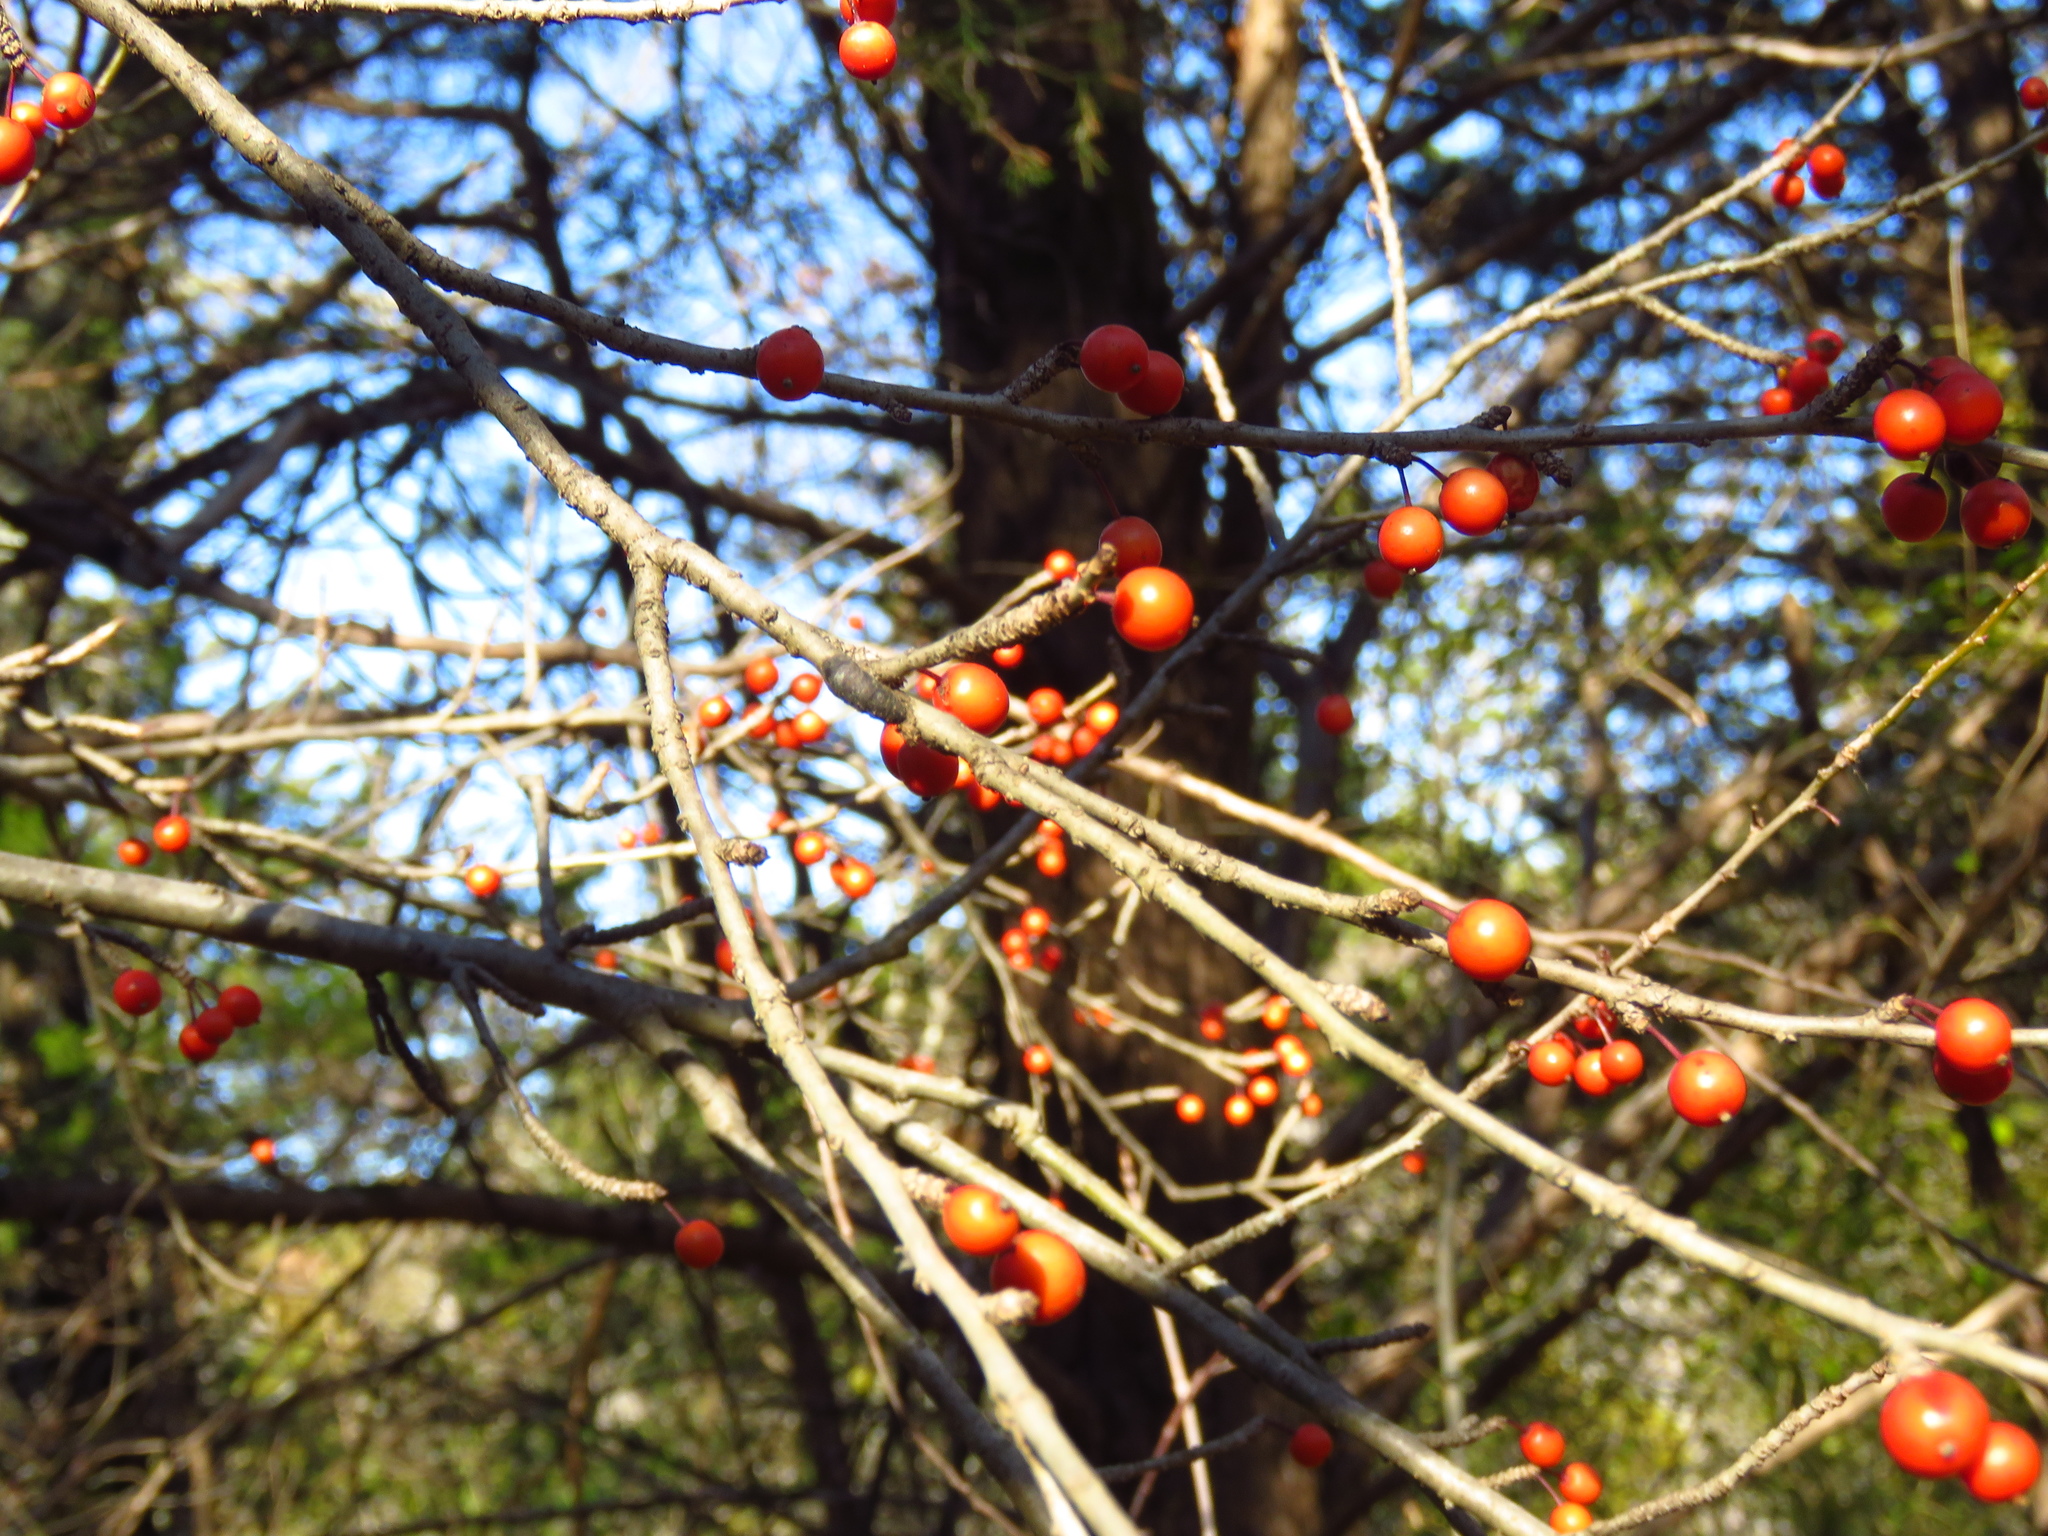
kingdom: Plantae
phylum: Tracheophyta
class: Magnoliopsida
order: Aquifoliales
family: Aquifoliaceae
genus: Ilex
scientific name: Ilex decidua
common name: Possum-haw
